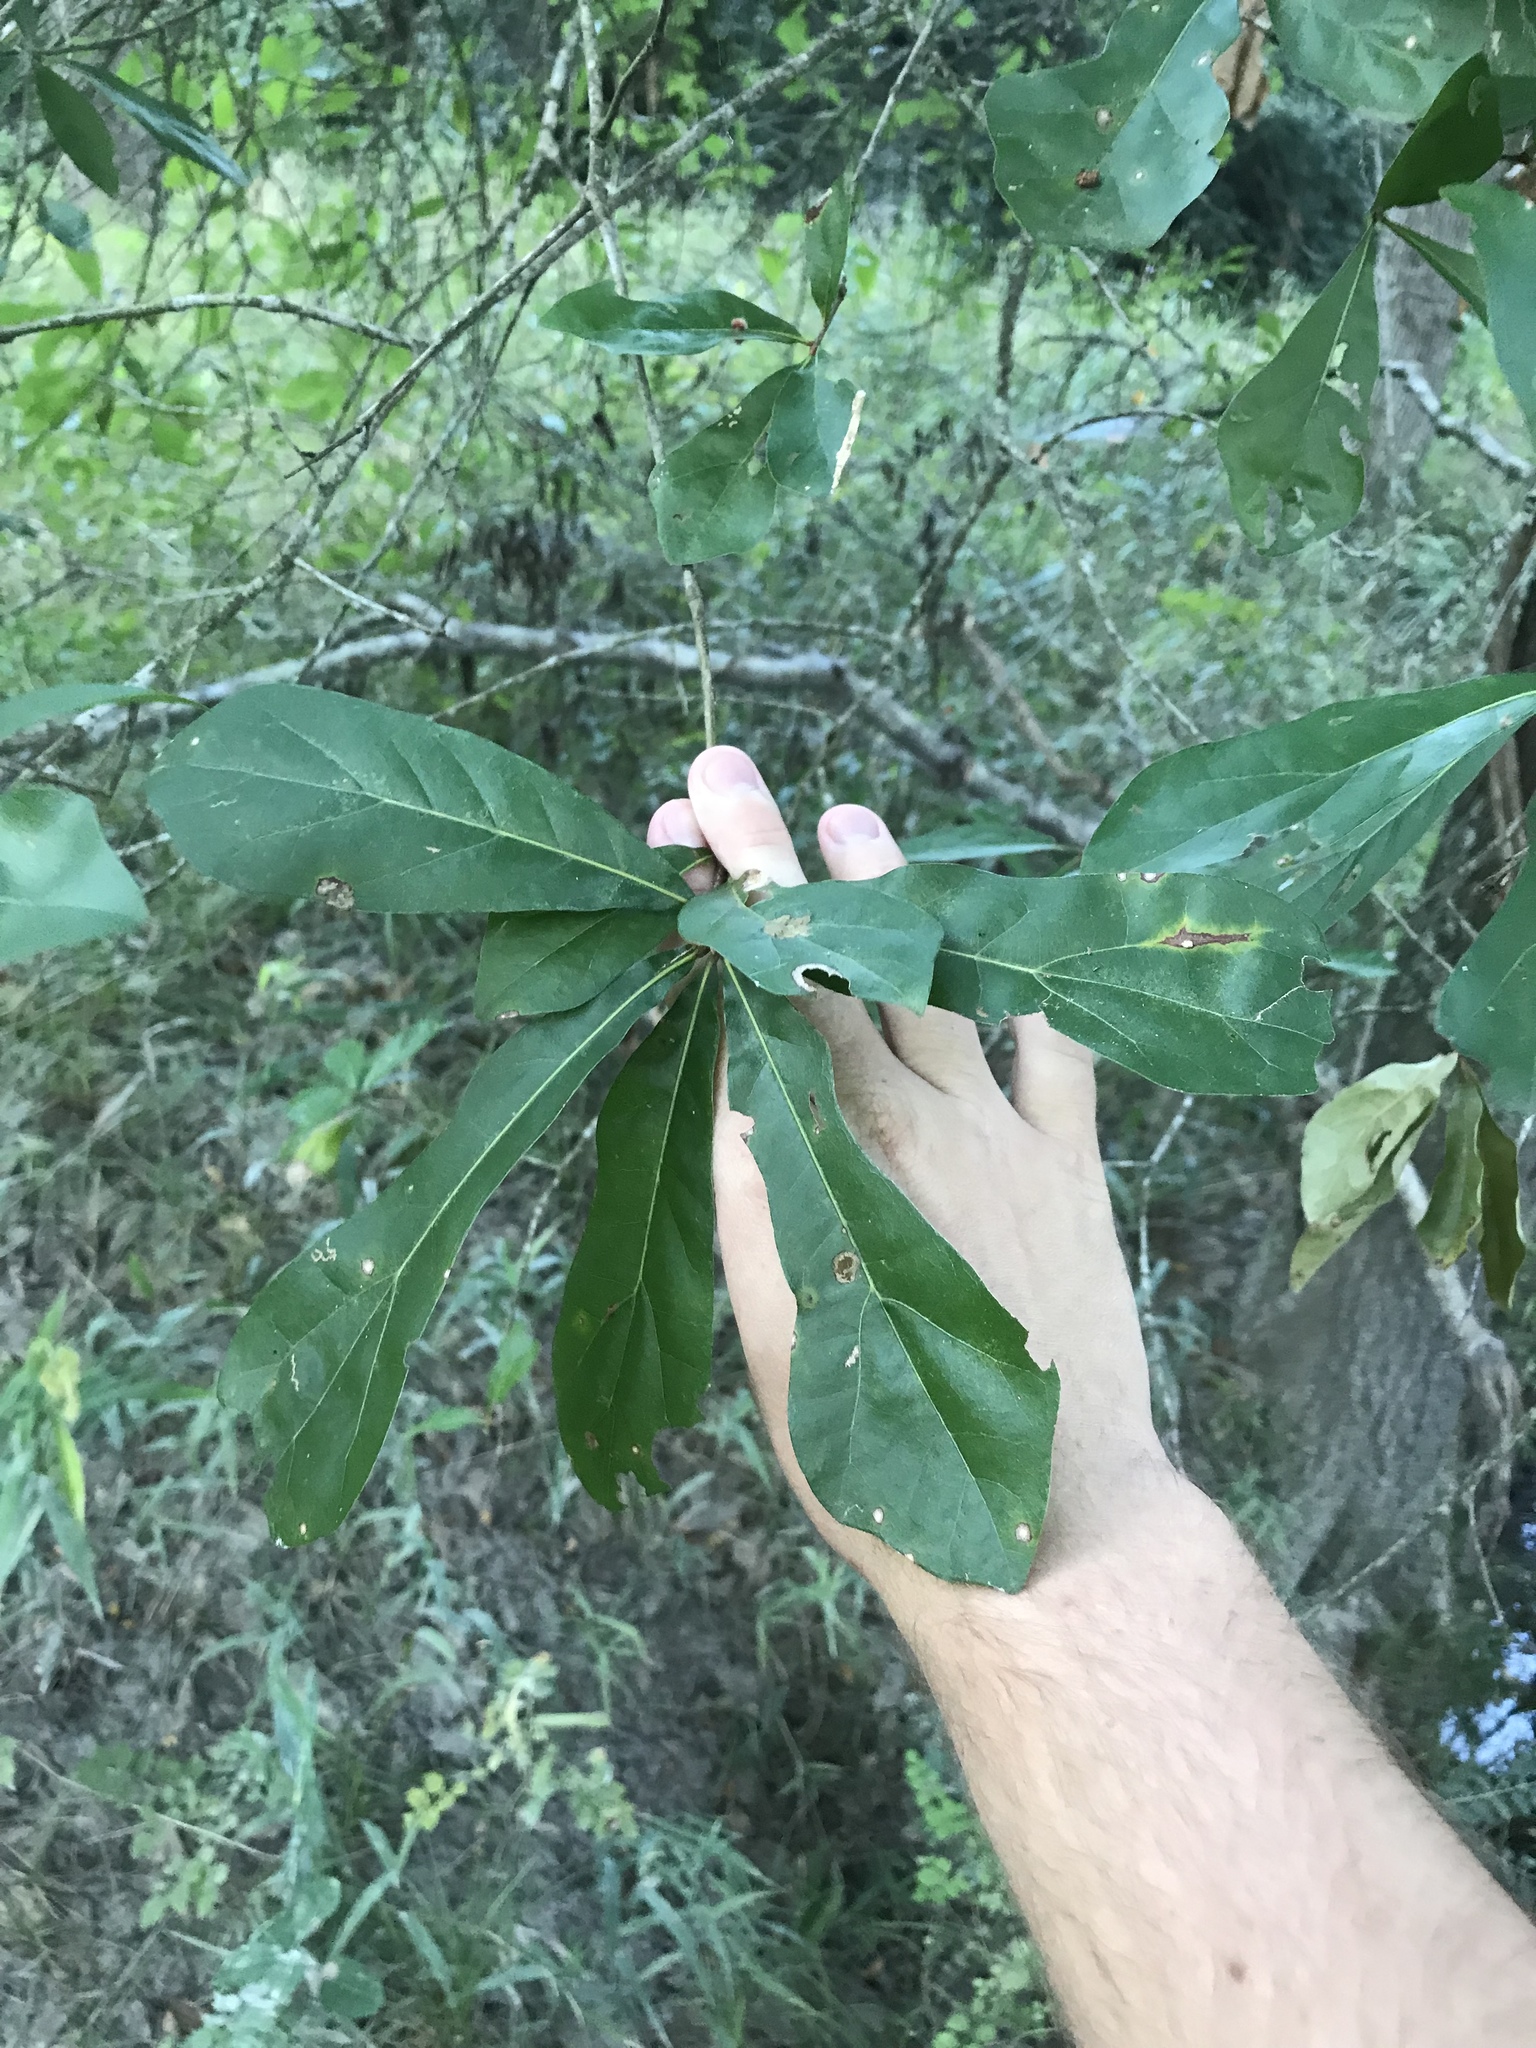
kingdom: Plantae
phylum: Tracheophyta
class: Magnoliopsida
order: Fagales
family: Fagaceae
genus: Quercus
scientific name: Quercus nigra
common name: Water oak
